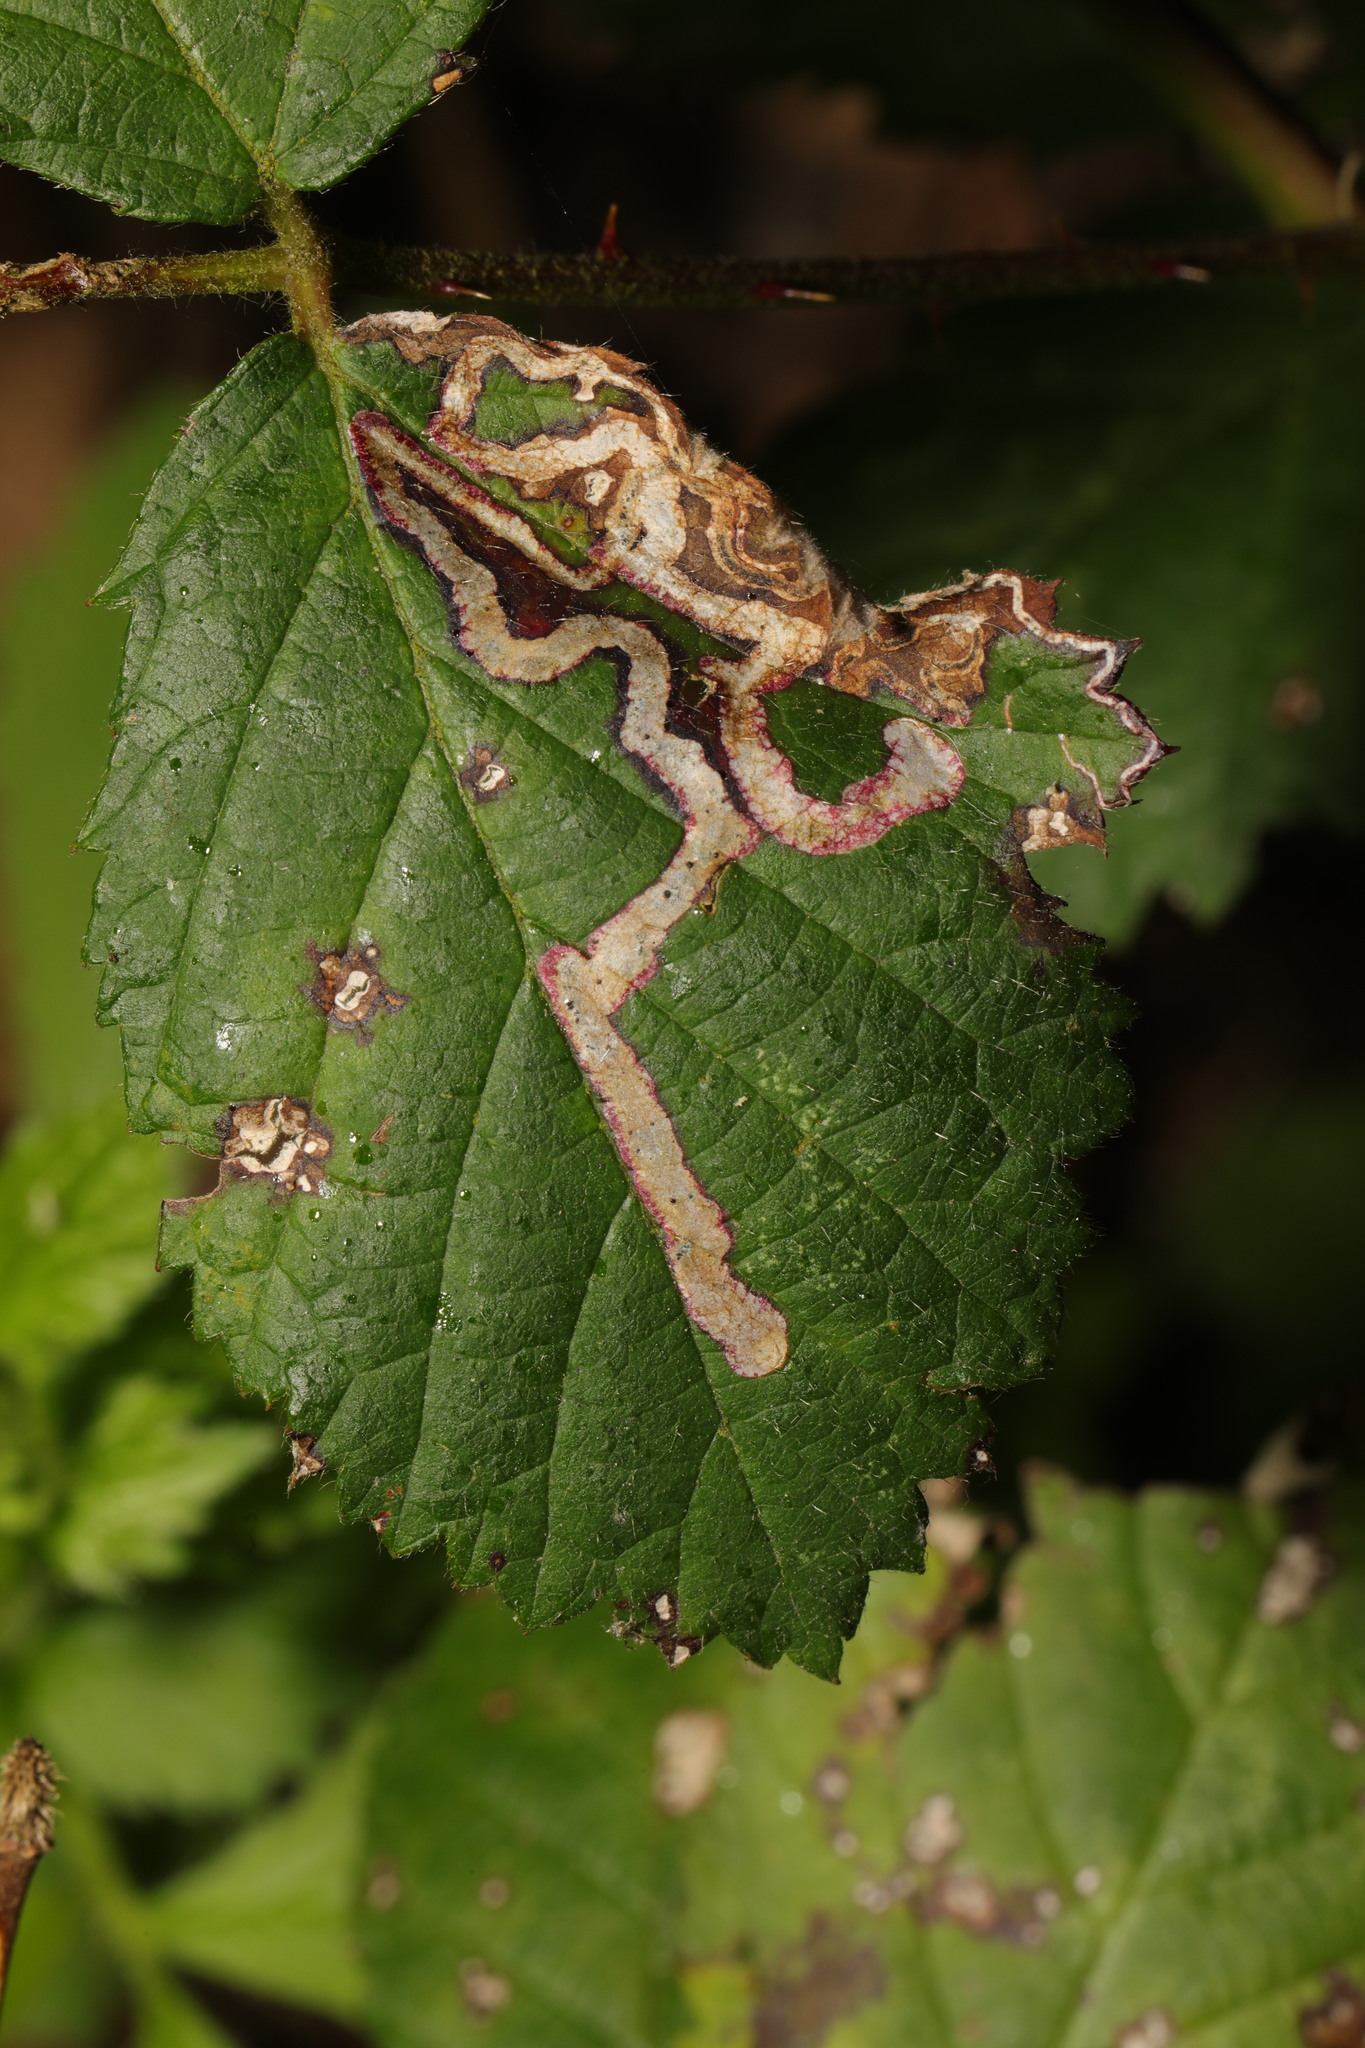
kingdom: Animalia
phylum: Arthropoda
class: Insecta
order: Lepidoptera
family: Nepticulidae
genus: Stigmella
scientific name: Stigmella aurella
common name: Golden pigmy
